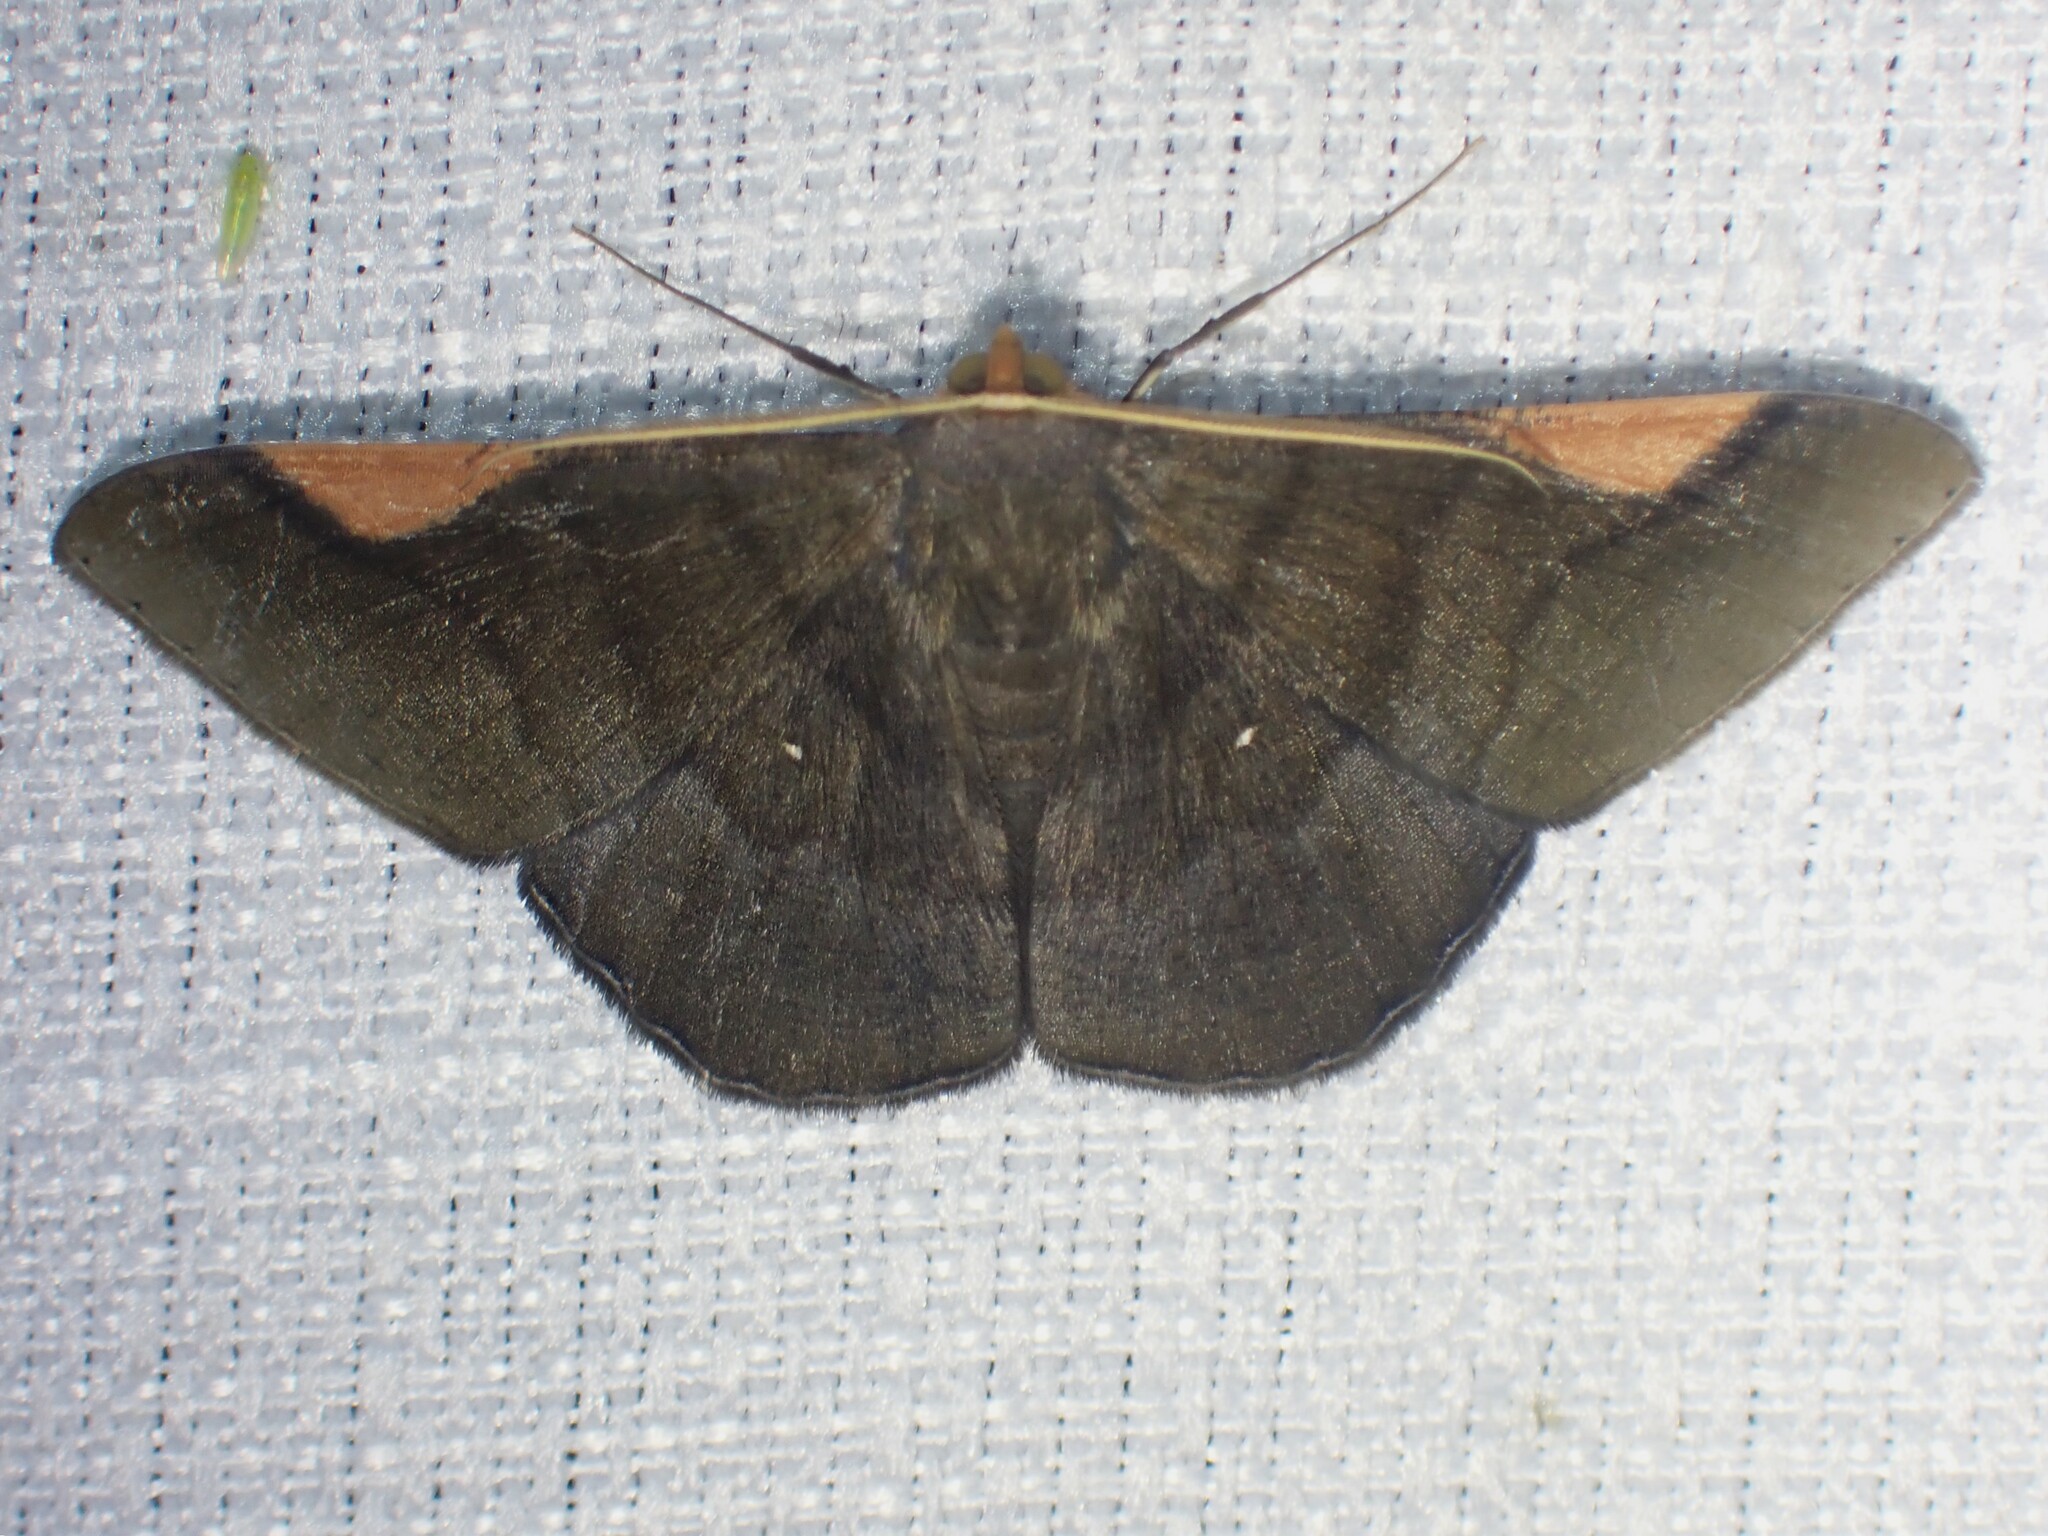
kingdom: Animalia
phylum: Arthropoda
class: Insecta
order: Lepidoptera
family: Geometridae
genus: Sphacelodes
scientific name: Sphacelodes vulneraria
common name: Looper moth
